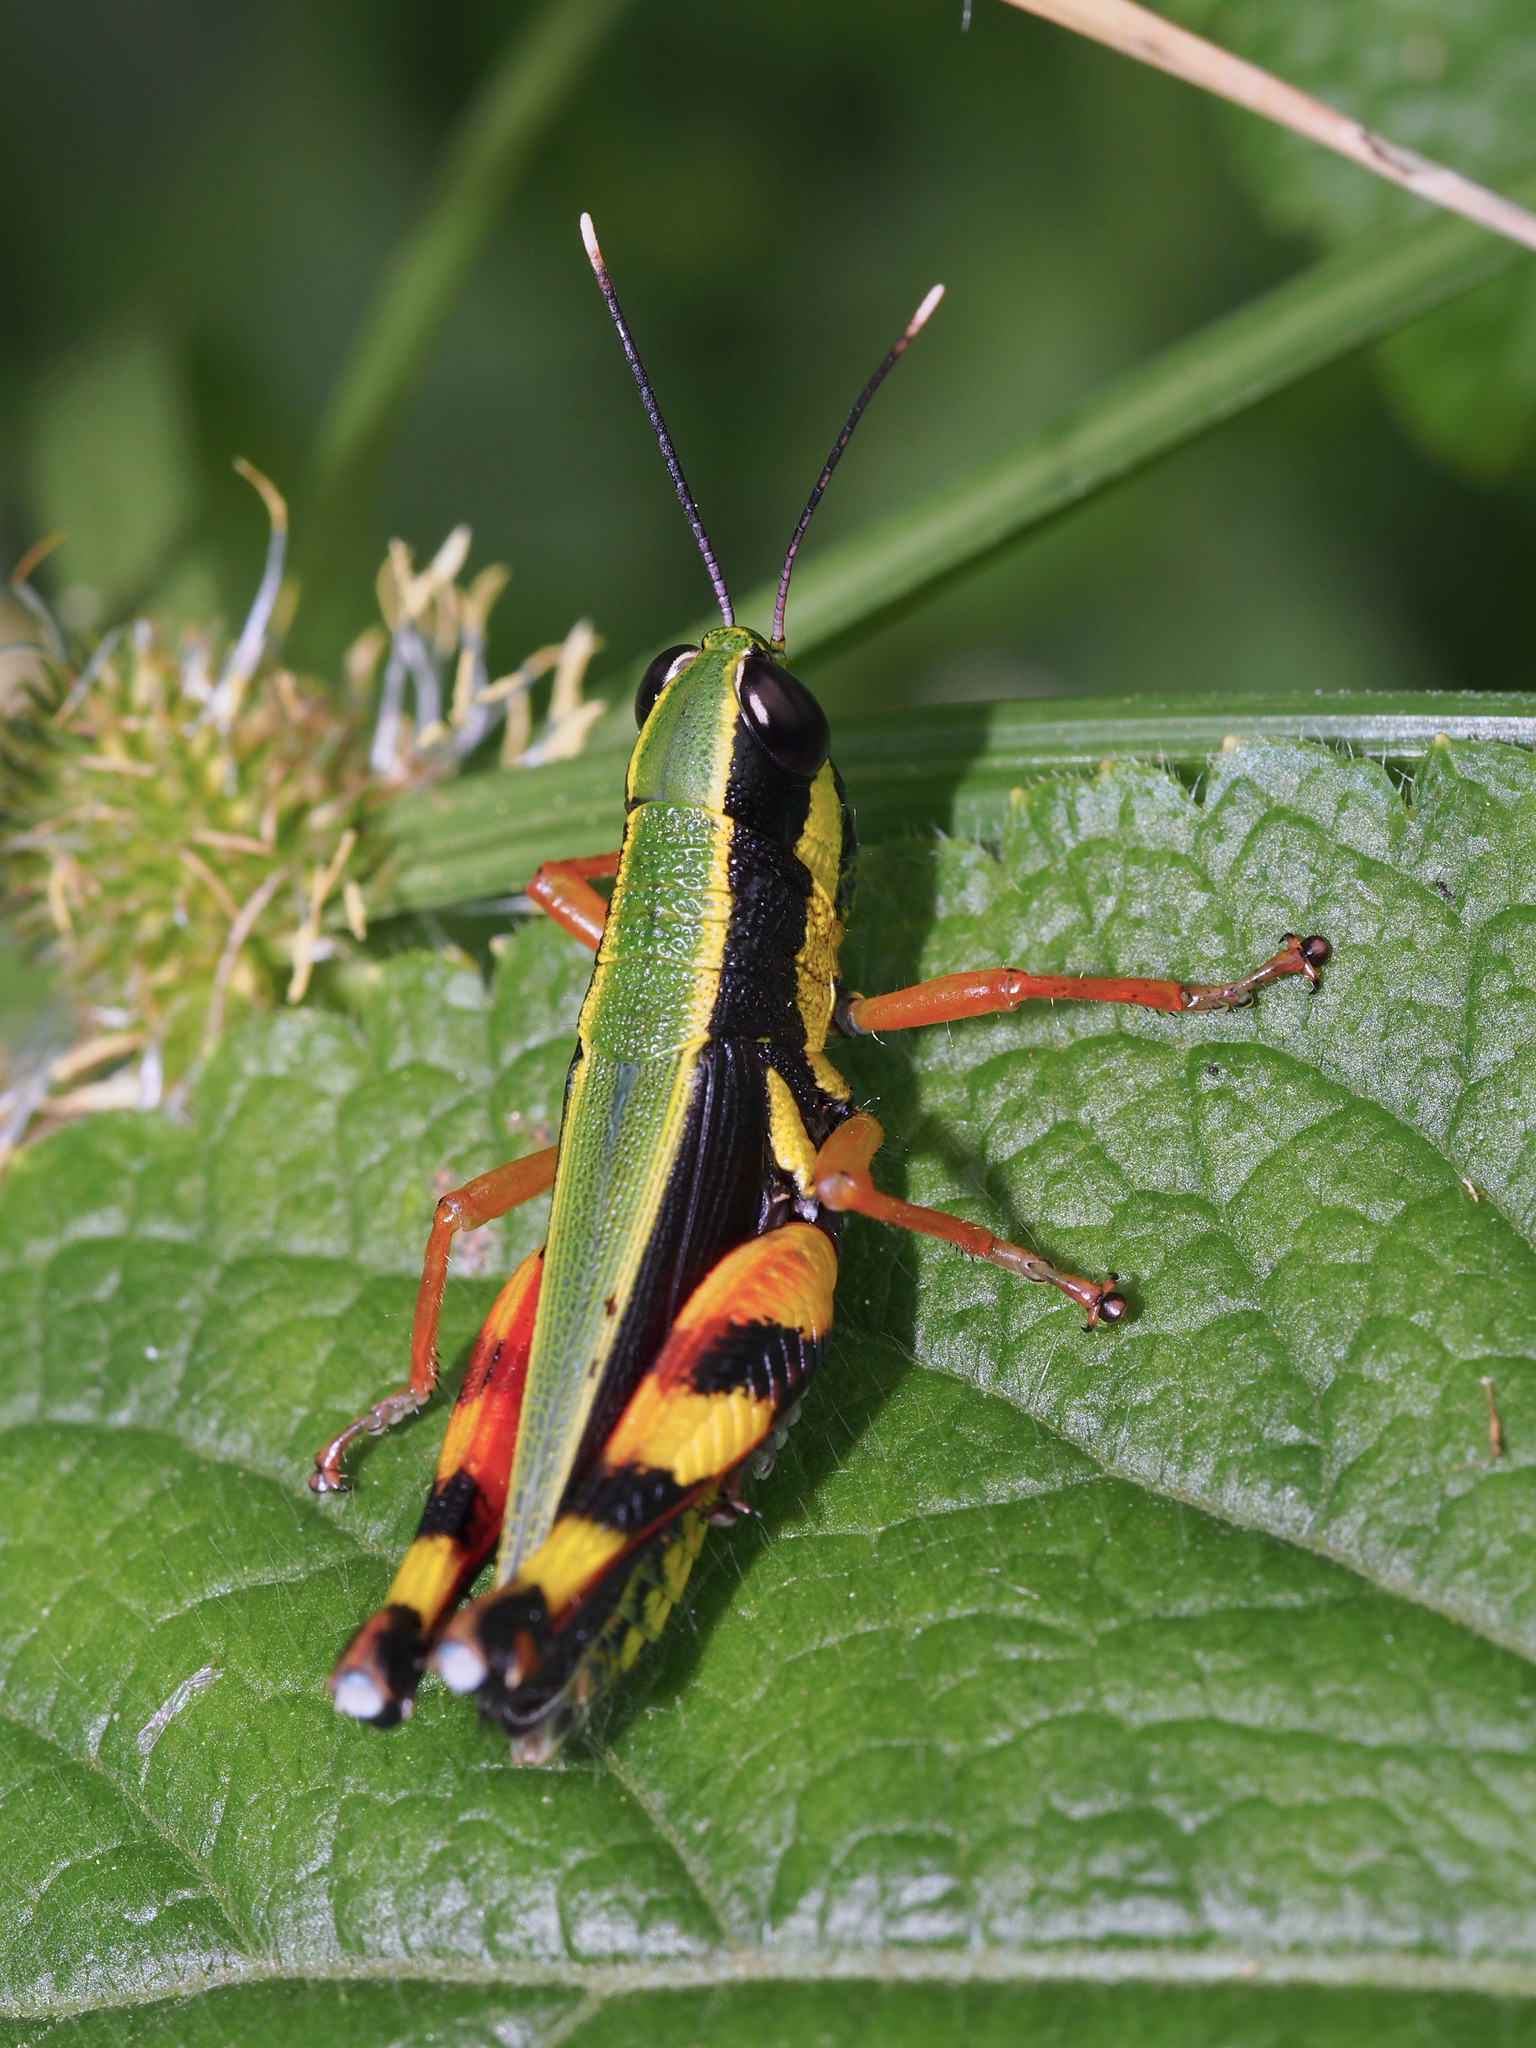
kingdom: Animalia
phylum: Arthropoda
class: Insecta
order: Orthoptera
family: Acrididae
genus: Tauchira
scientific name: Tauchira polychroa
